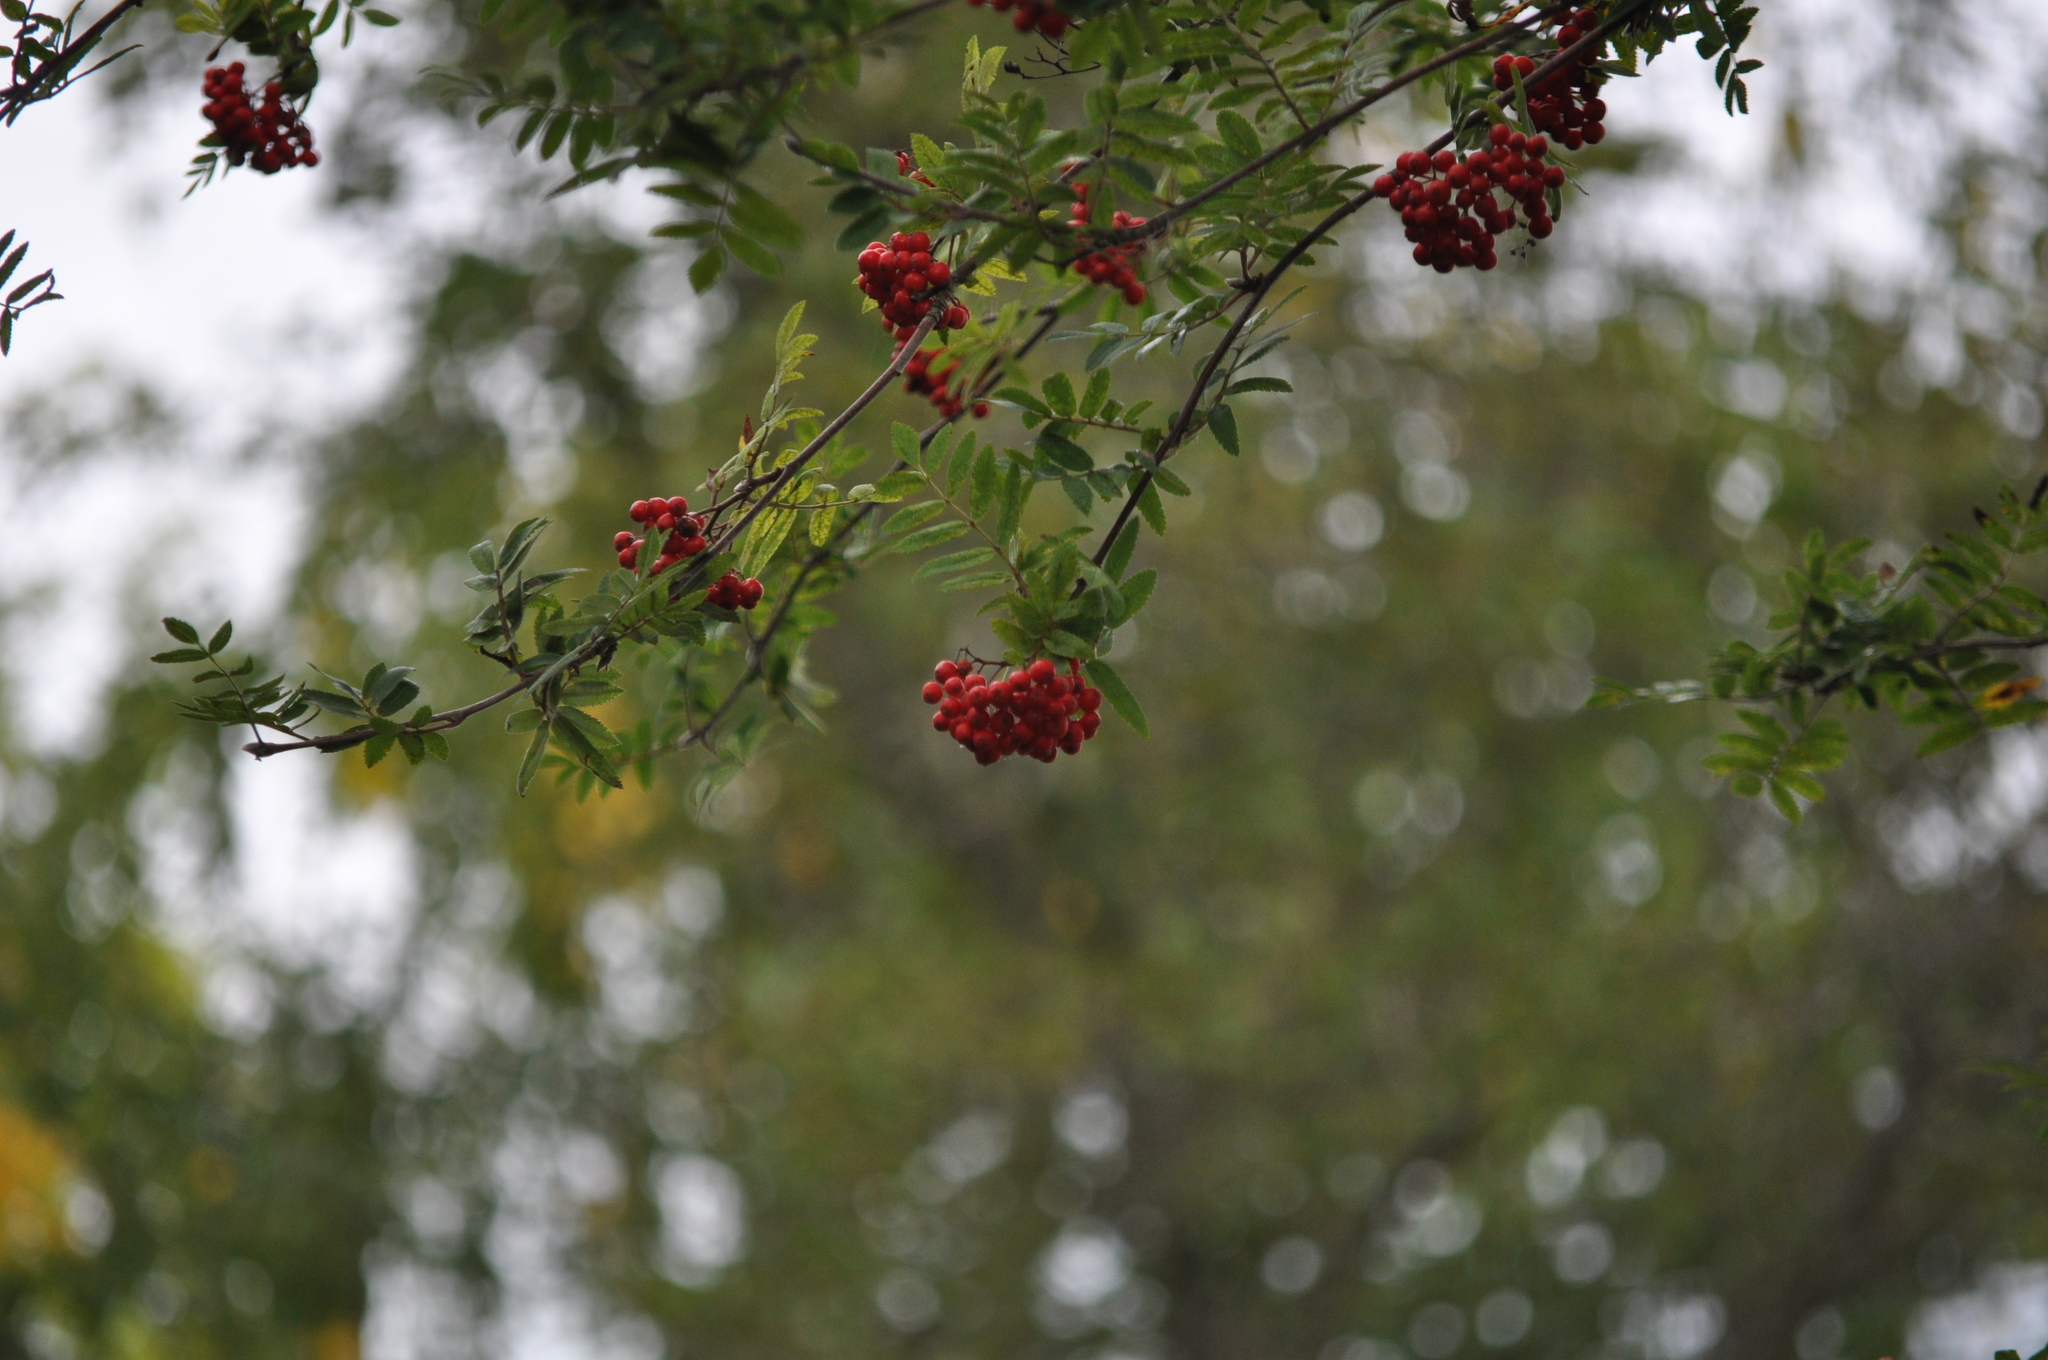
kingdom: Plantae
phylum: Tracheophyta
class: Magnoliopsida
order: Rosales
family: Rosaceae
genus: Sorbus
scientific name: Sorbus aucuparia
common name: Rowan
